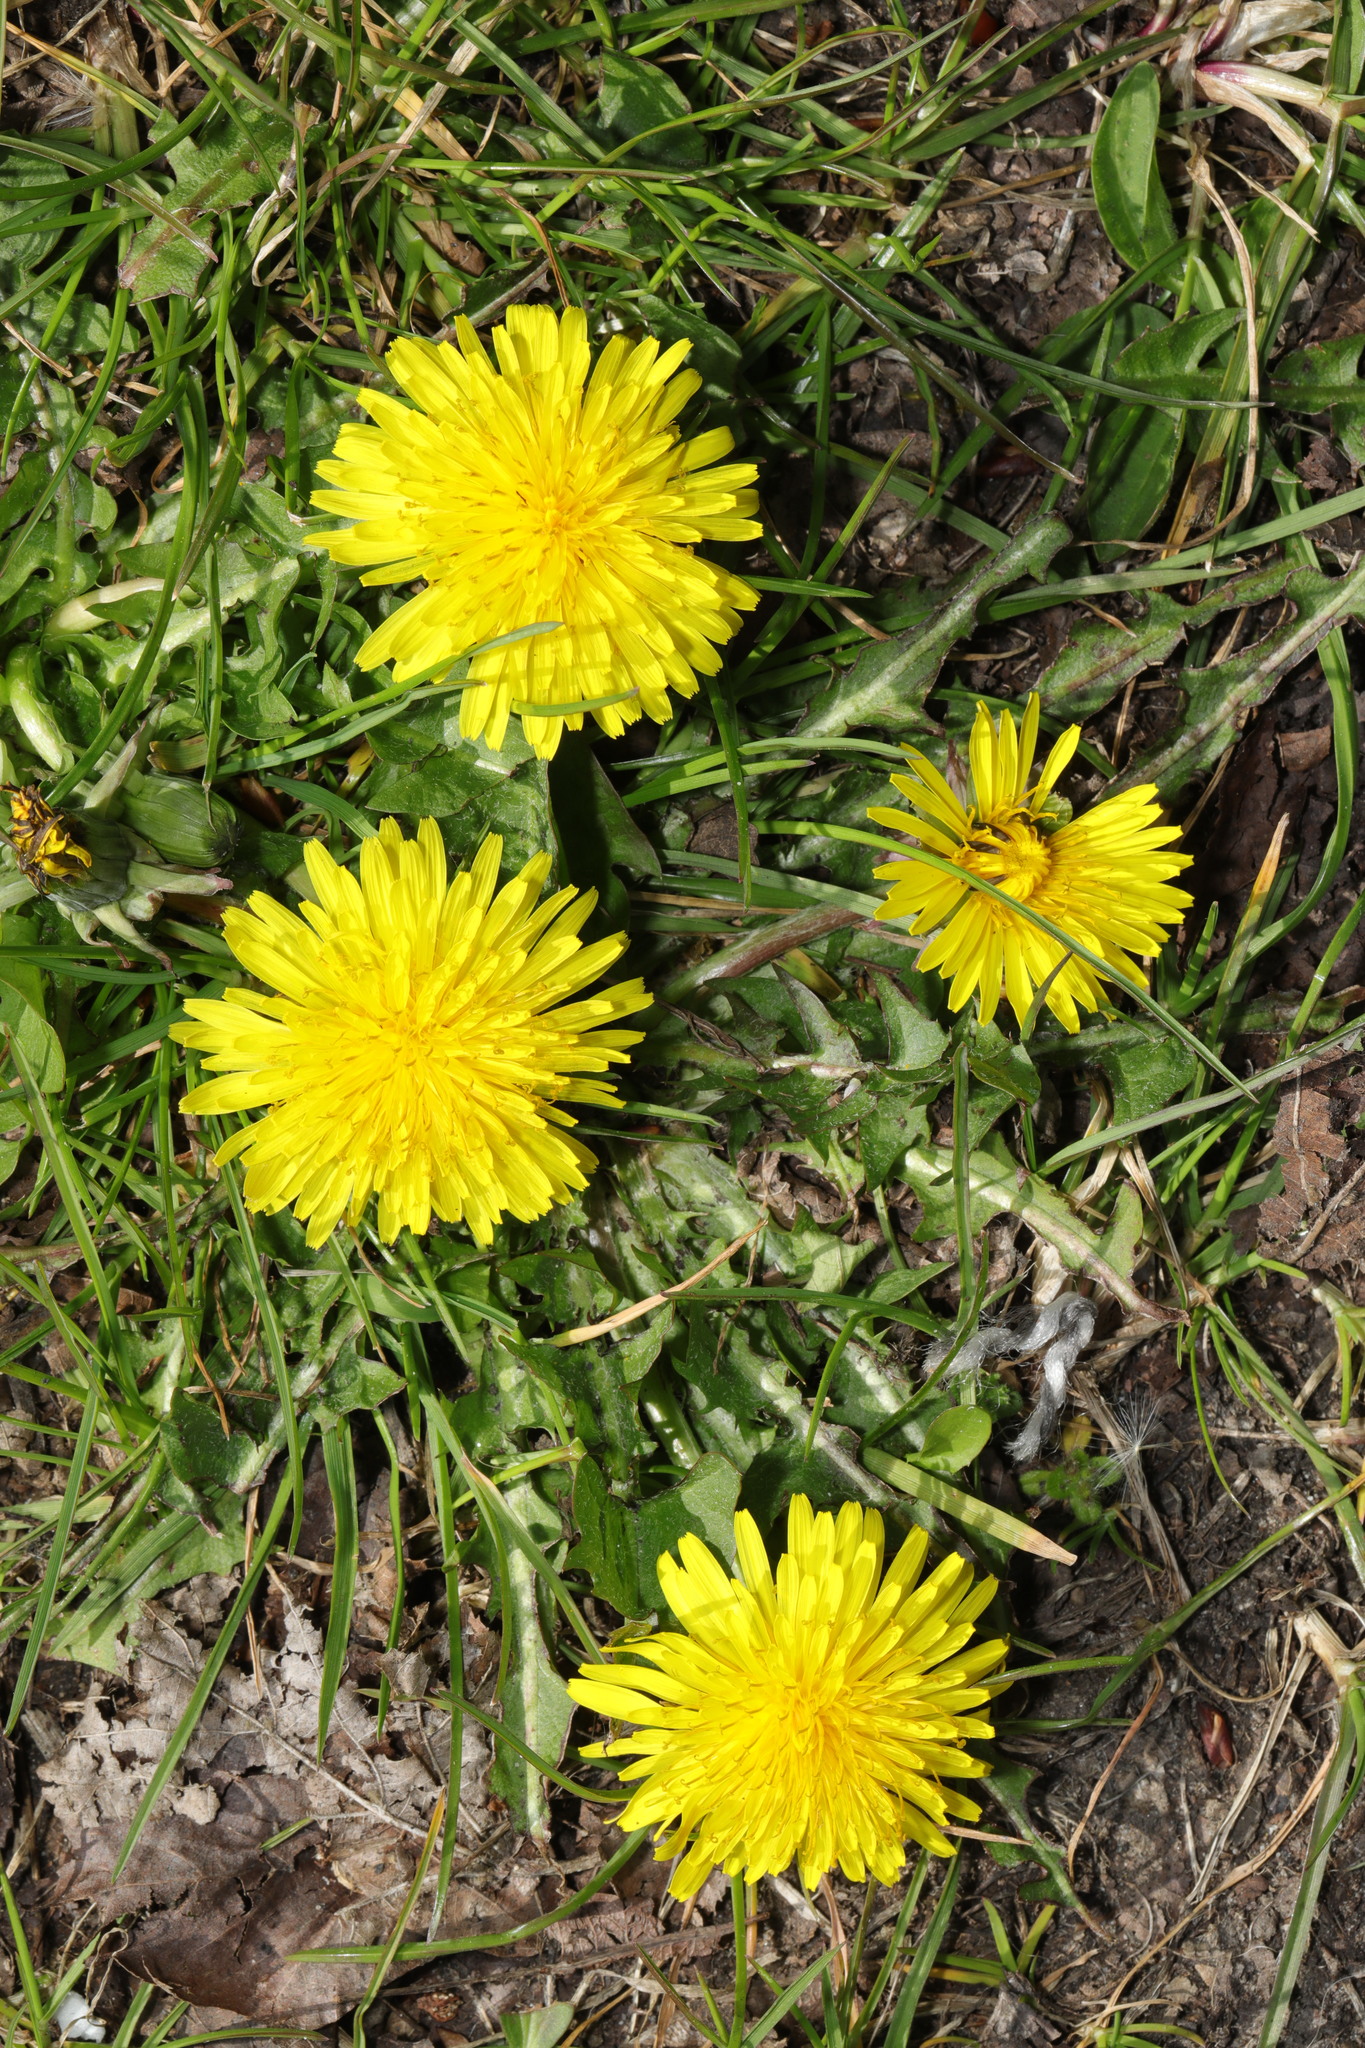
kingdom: Plantae
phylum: Tracheophyta
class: Magnoliopsida
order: Asterales
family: Asteraceae
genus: Taraxacum
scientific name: Taraxacum officinale
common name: Common dandelion
